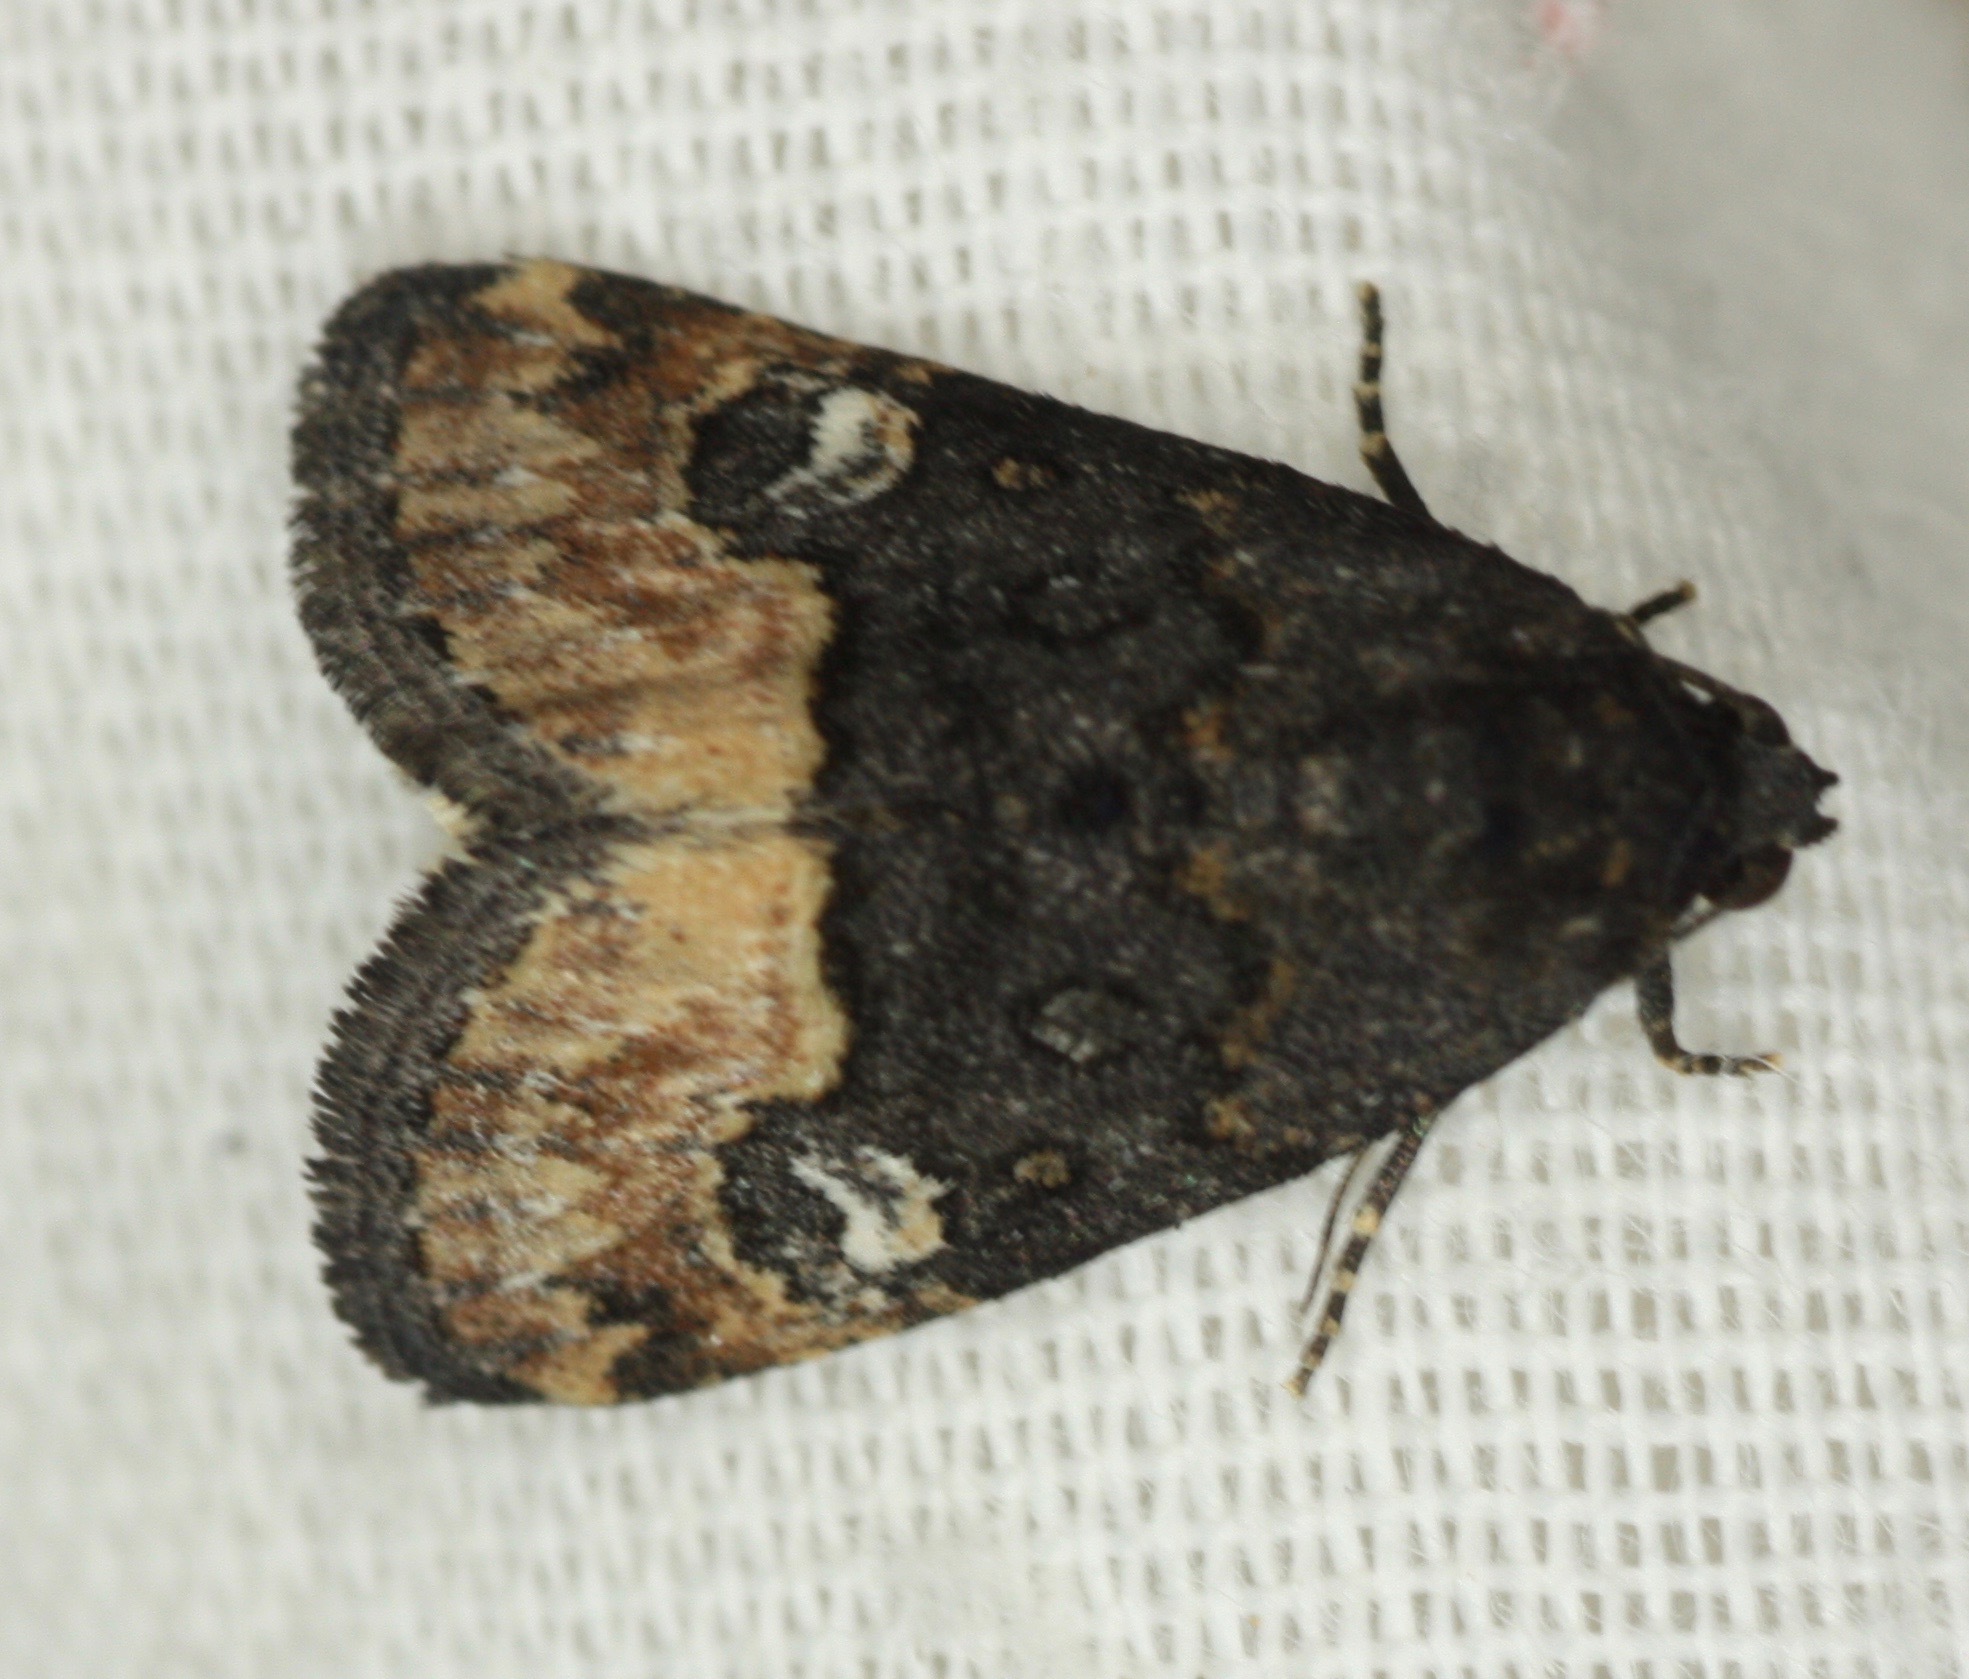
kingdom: Animalia
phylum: Arthropoda
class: Insecta
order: Lepidoptera
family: Noctuidae
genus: Ozarba
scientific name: Ozarba propera
